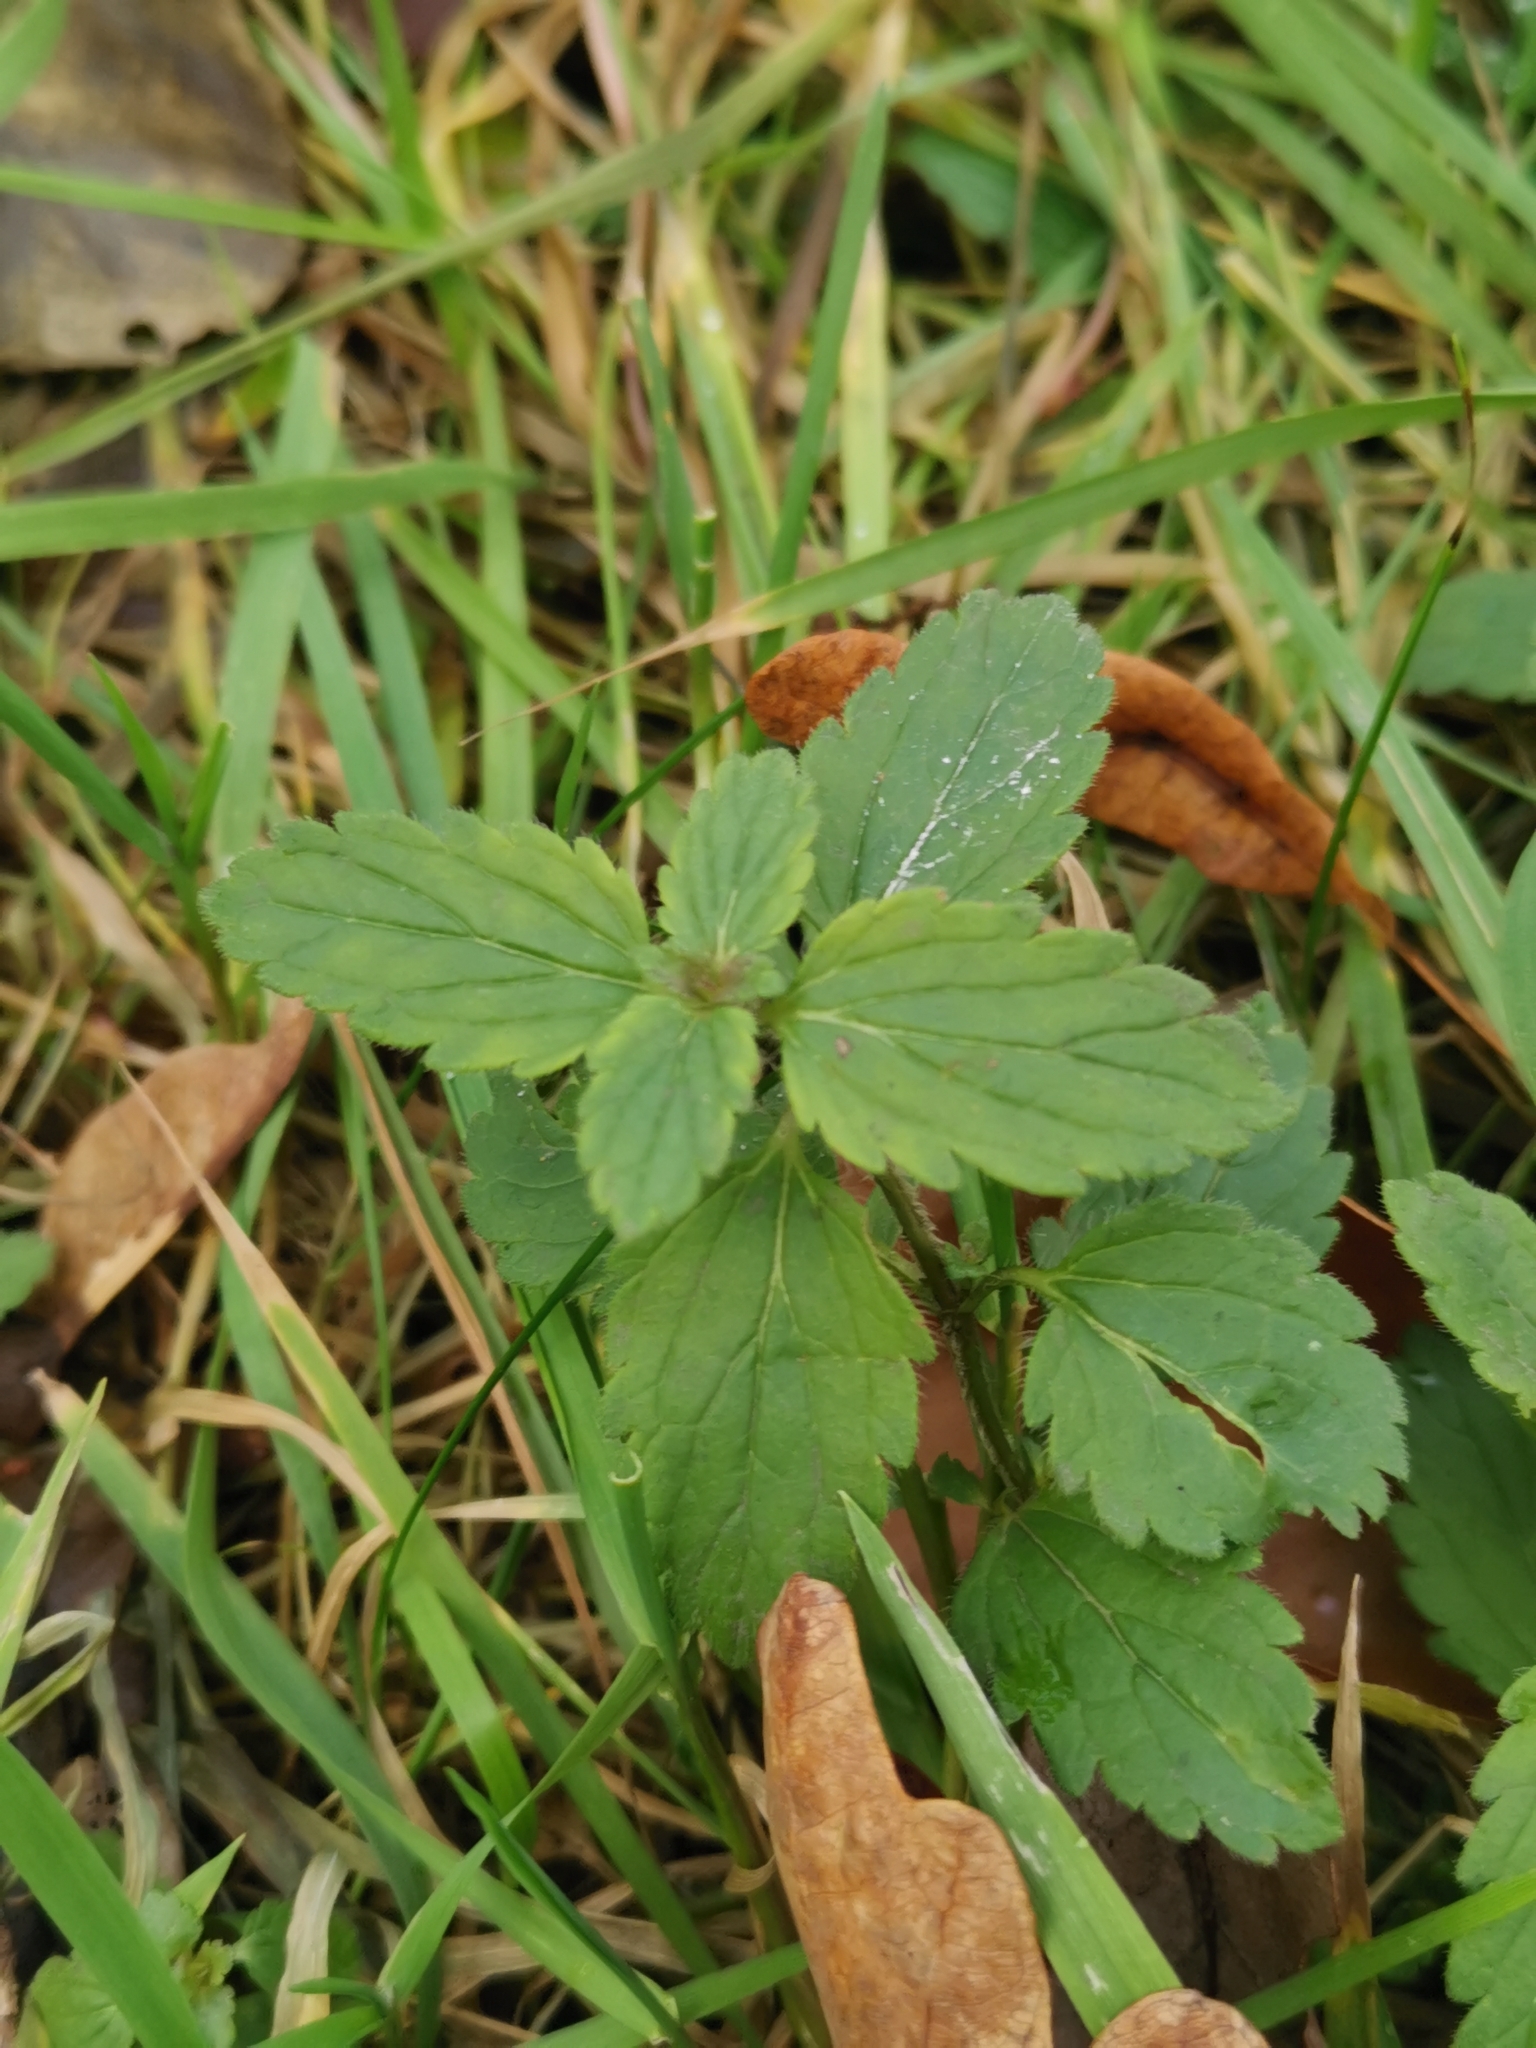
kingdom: Plantae
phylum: Tracheophyta
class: Magnoliopsida
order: Lamiales
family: Plantaginaceae
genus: Veronica
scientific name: Veronica chamaedrys
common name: Germander speedwell
